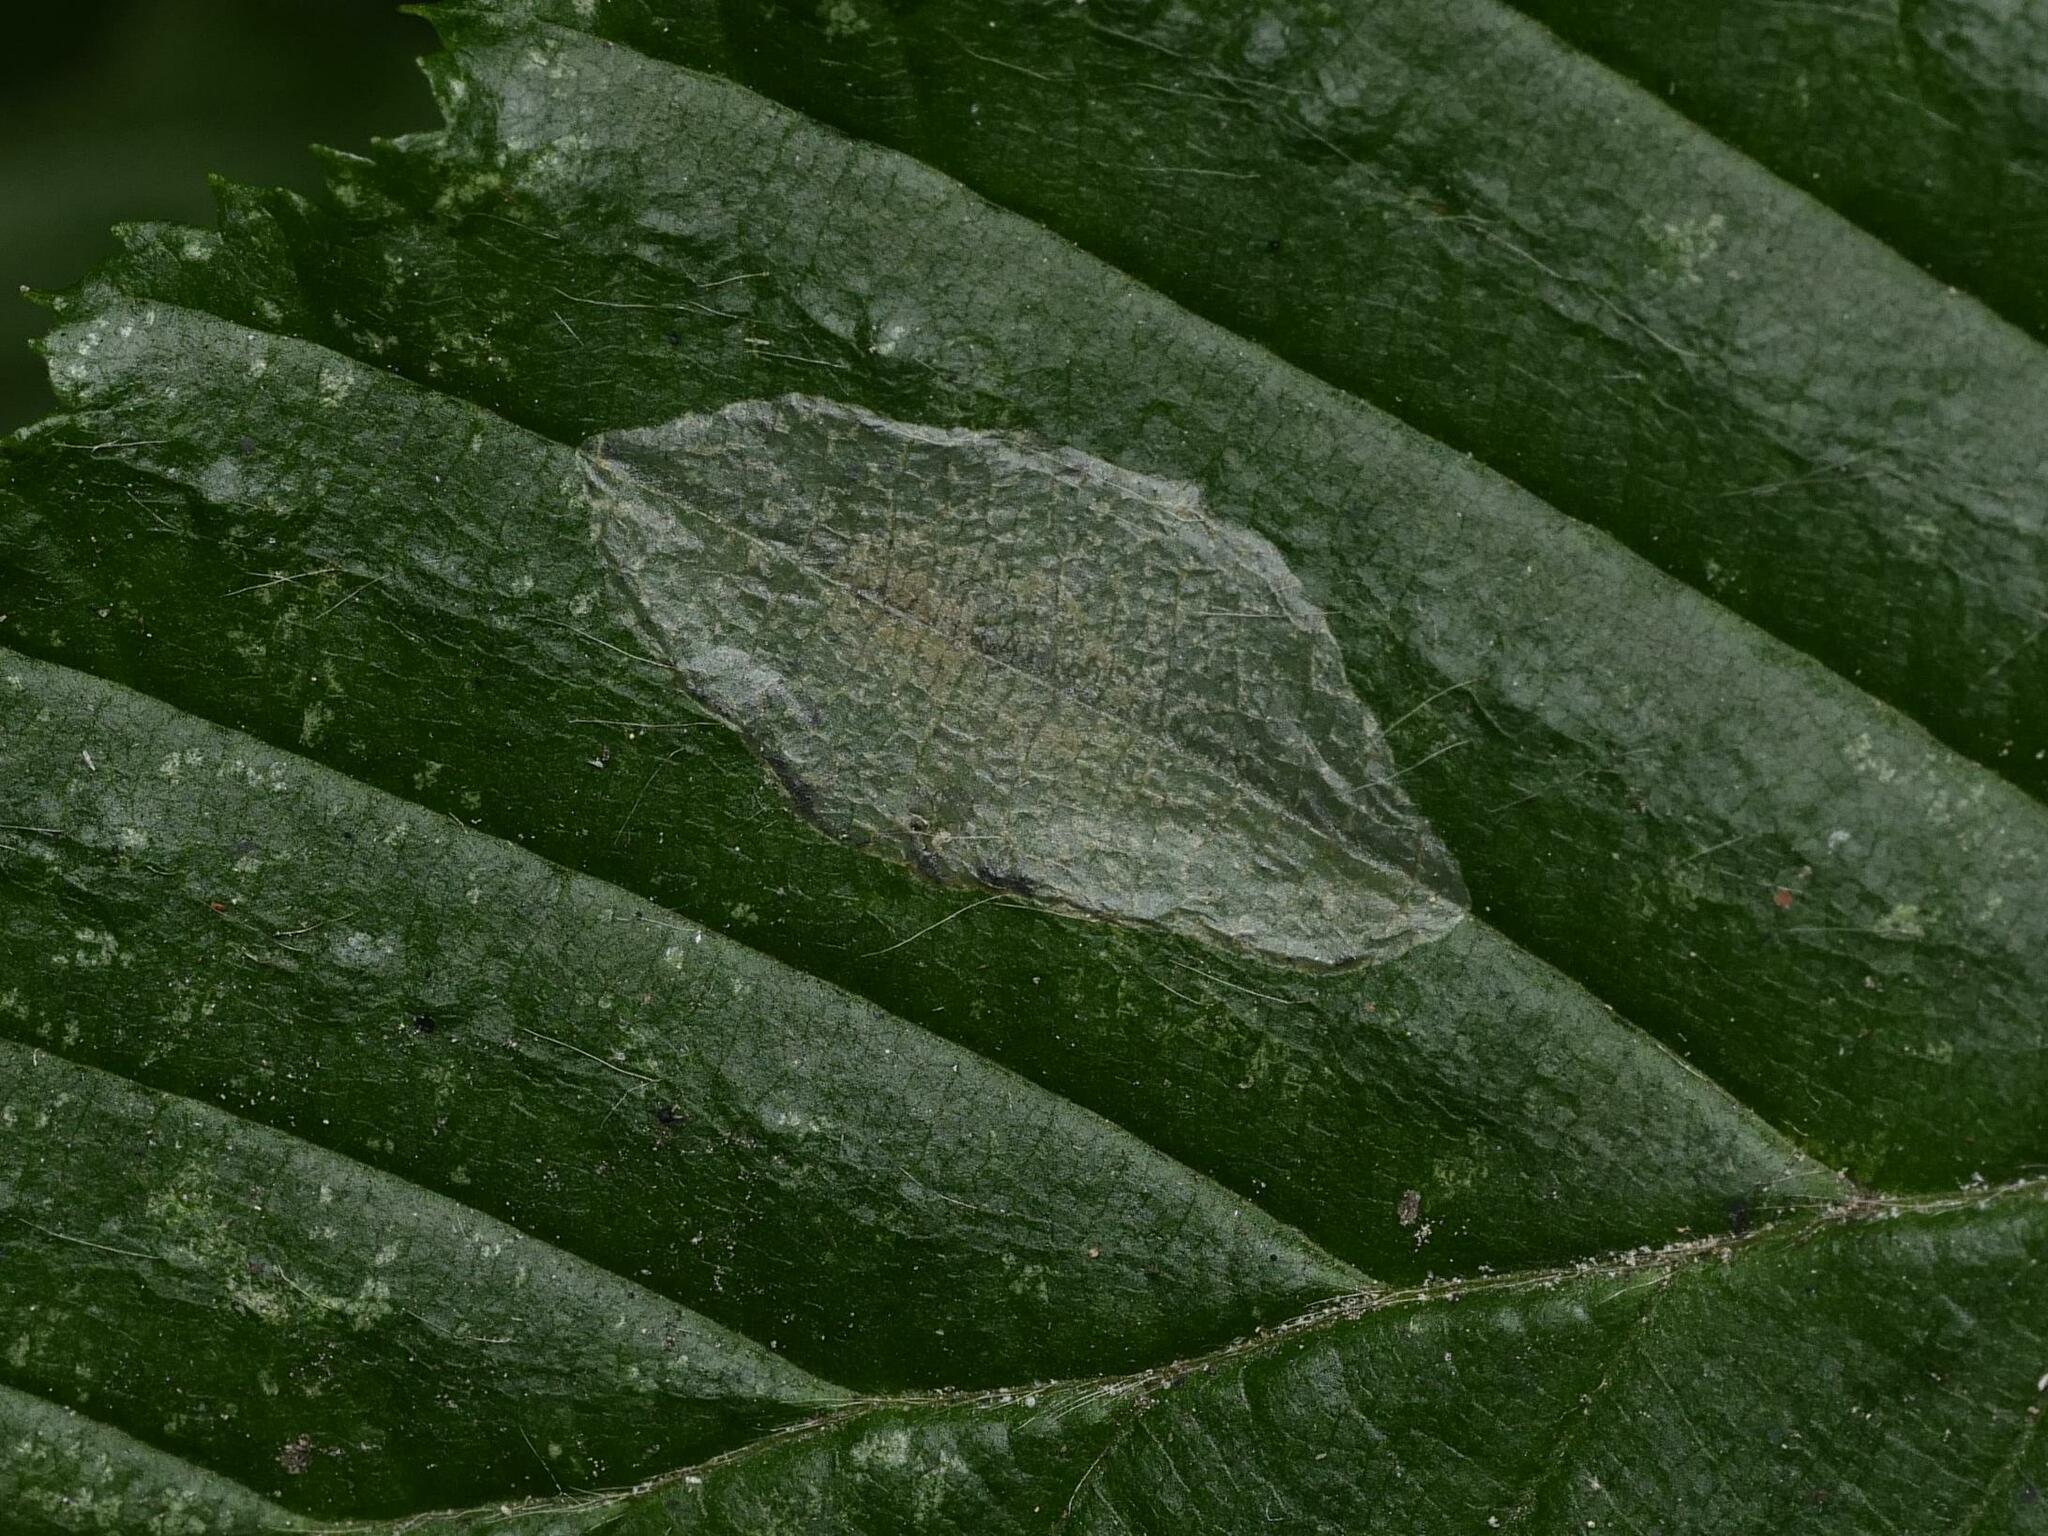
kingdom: Animalia
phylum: Arthropoda
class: Insecta
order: Lepidoptera
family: Gracillariidae
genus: Phyllonorycter
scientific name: Phyllonorycter esperella
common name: Dark hornbeam midget
